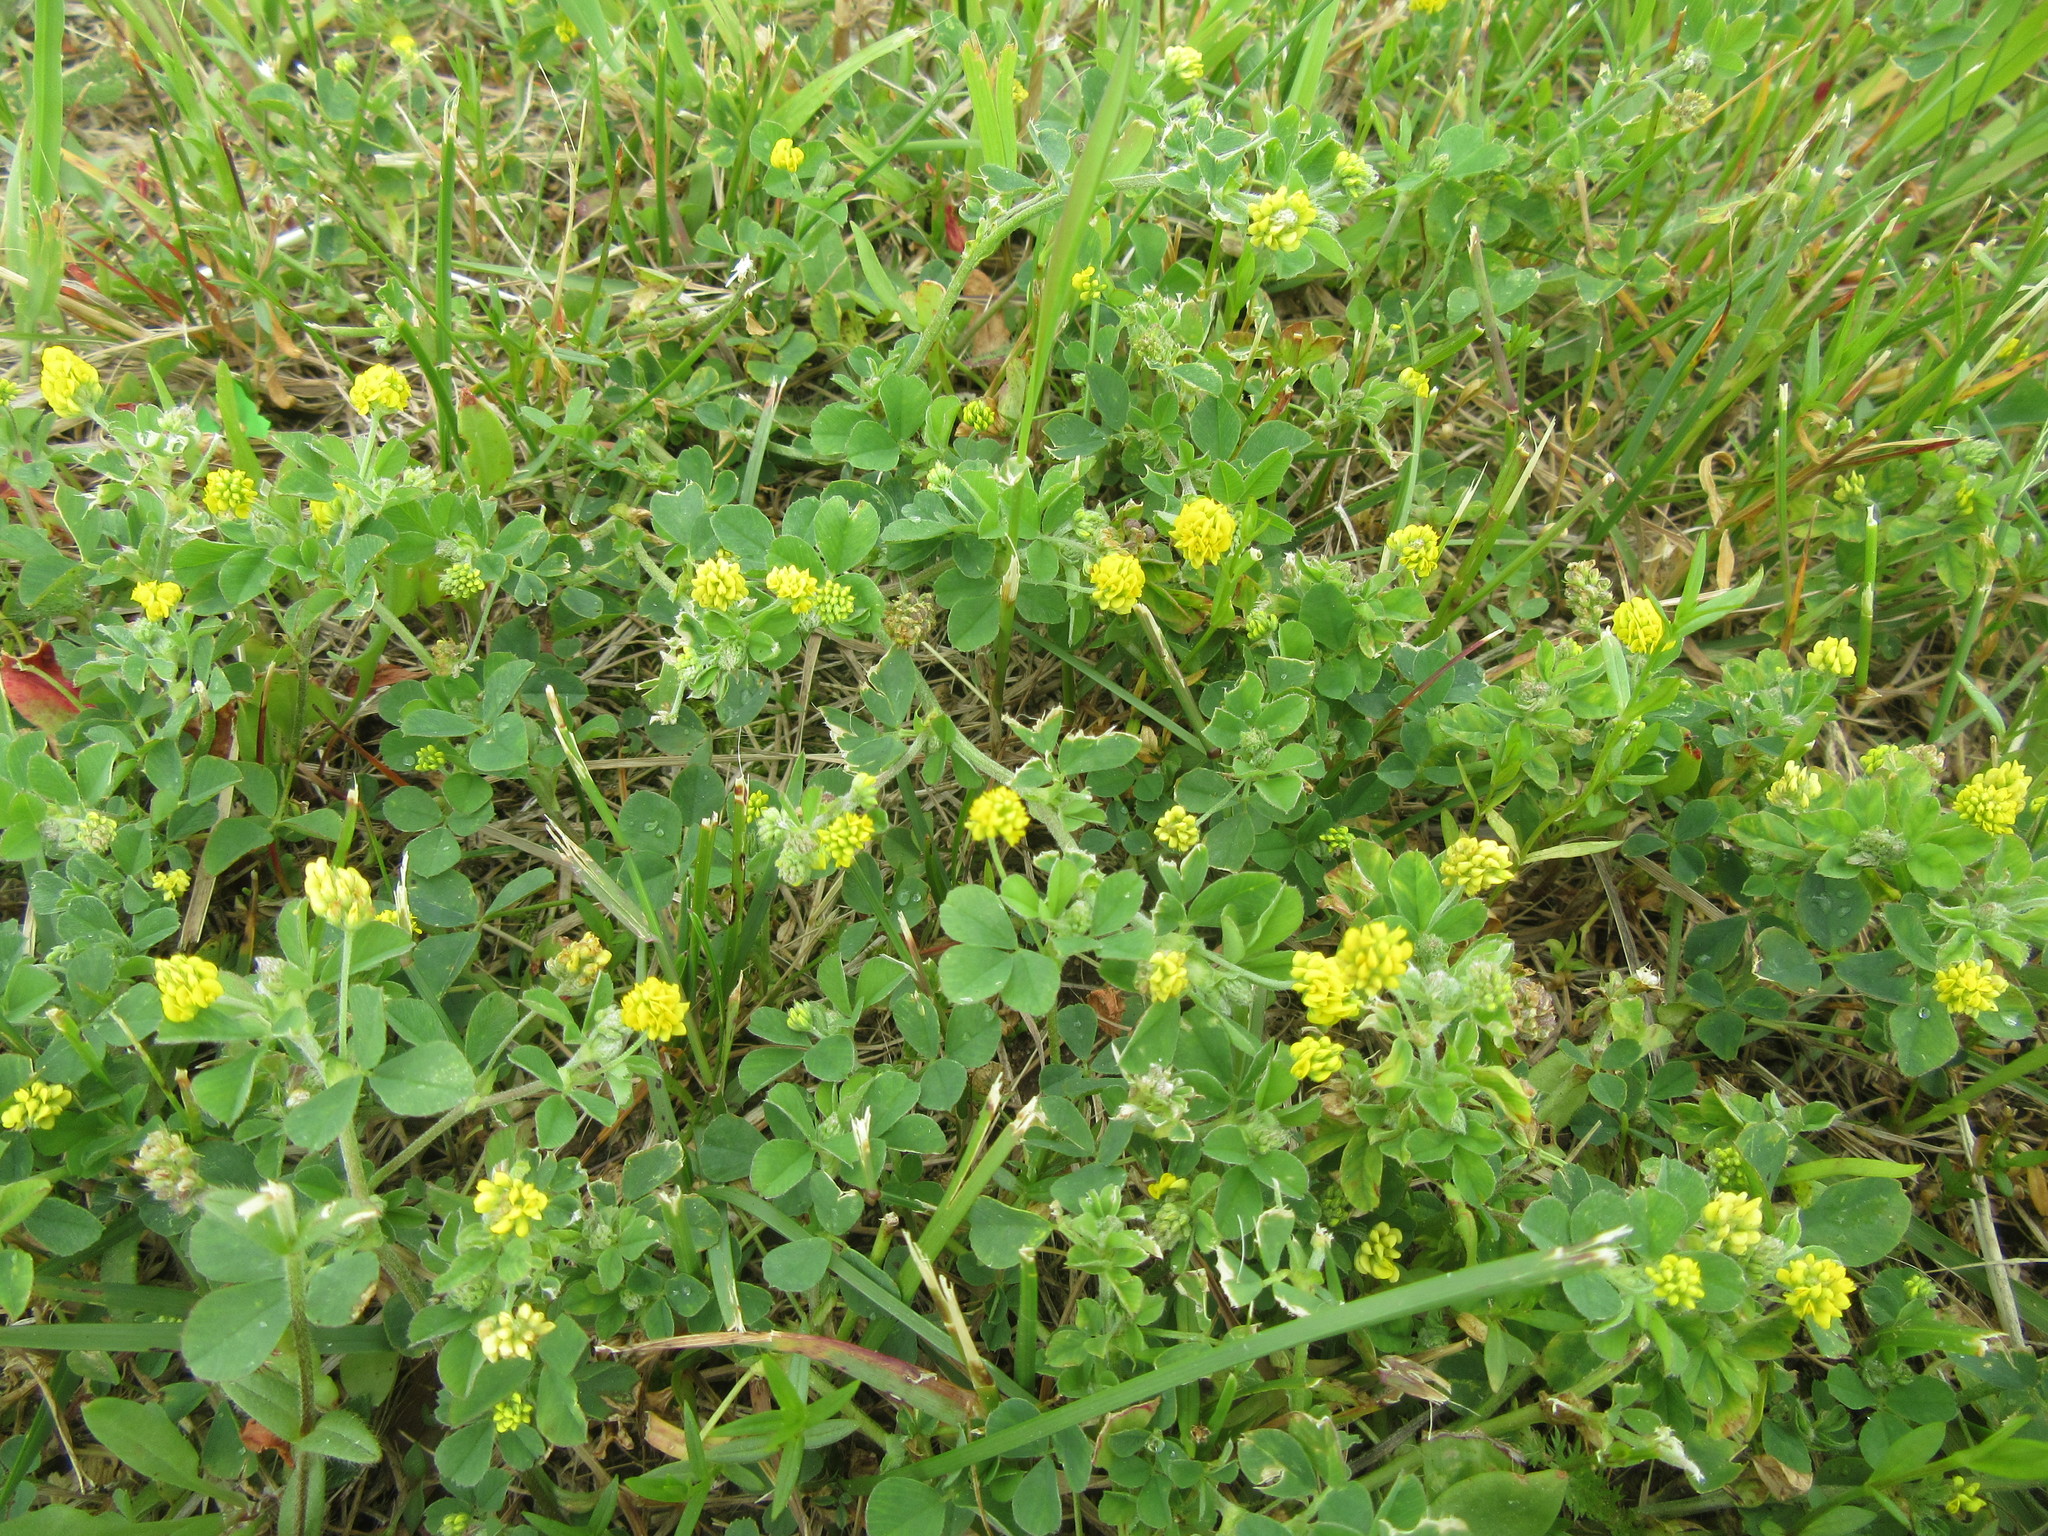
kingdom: Plantae
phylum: Tracheophyta
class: Magnoliopsida
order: Fabales
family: Fabaceae
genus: Medicago
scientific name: Medicago lupulina
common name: Black medick
